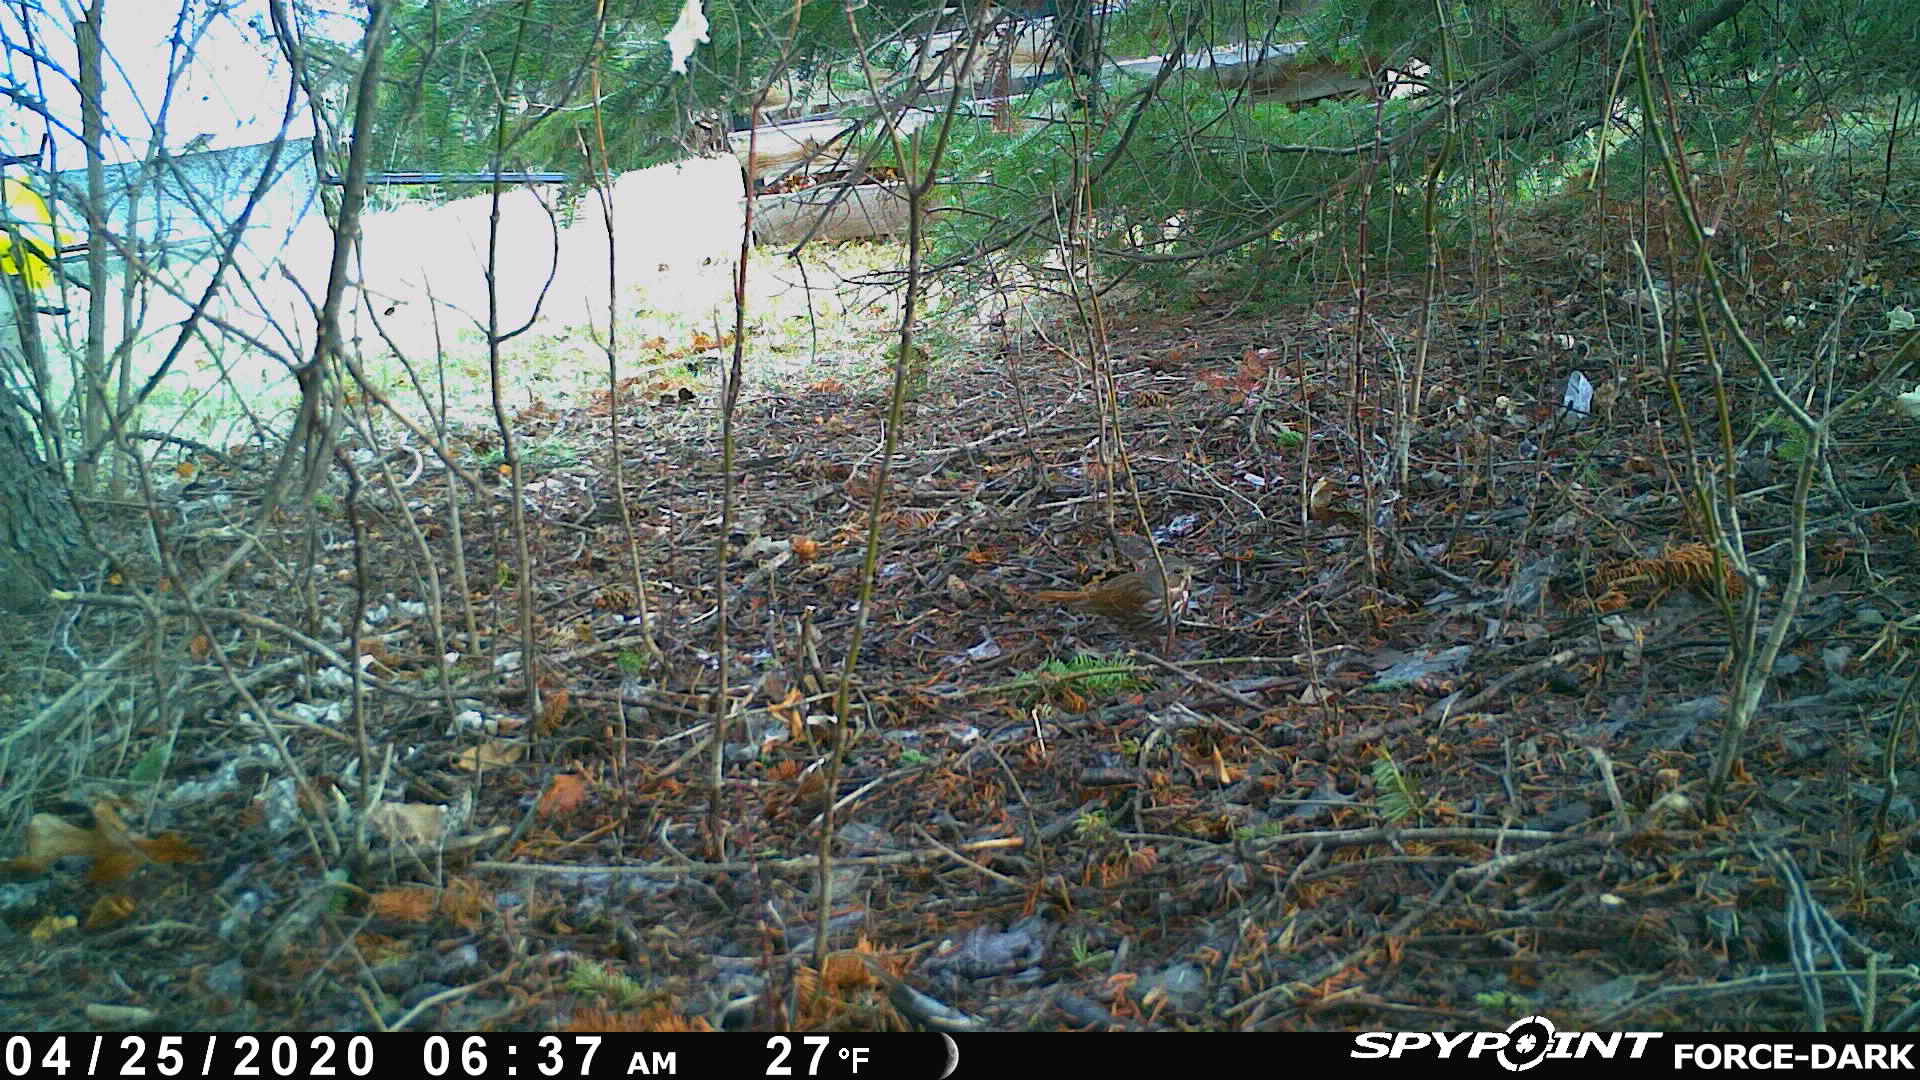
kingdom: Animalia
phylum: Chordata
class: Aves
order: Passeriformes
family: Passerellidae
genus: Passerella
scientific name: Passerella iliaca
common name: Fox sparrow
